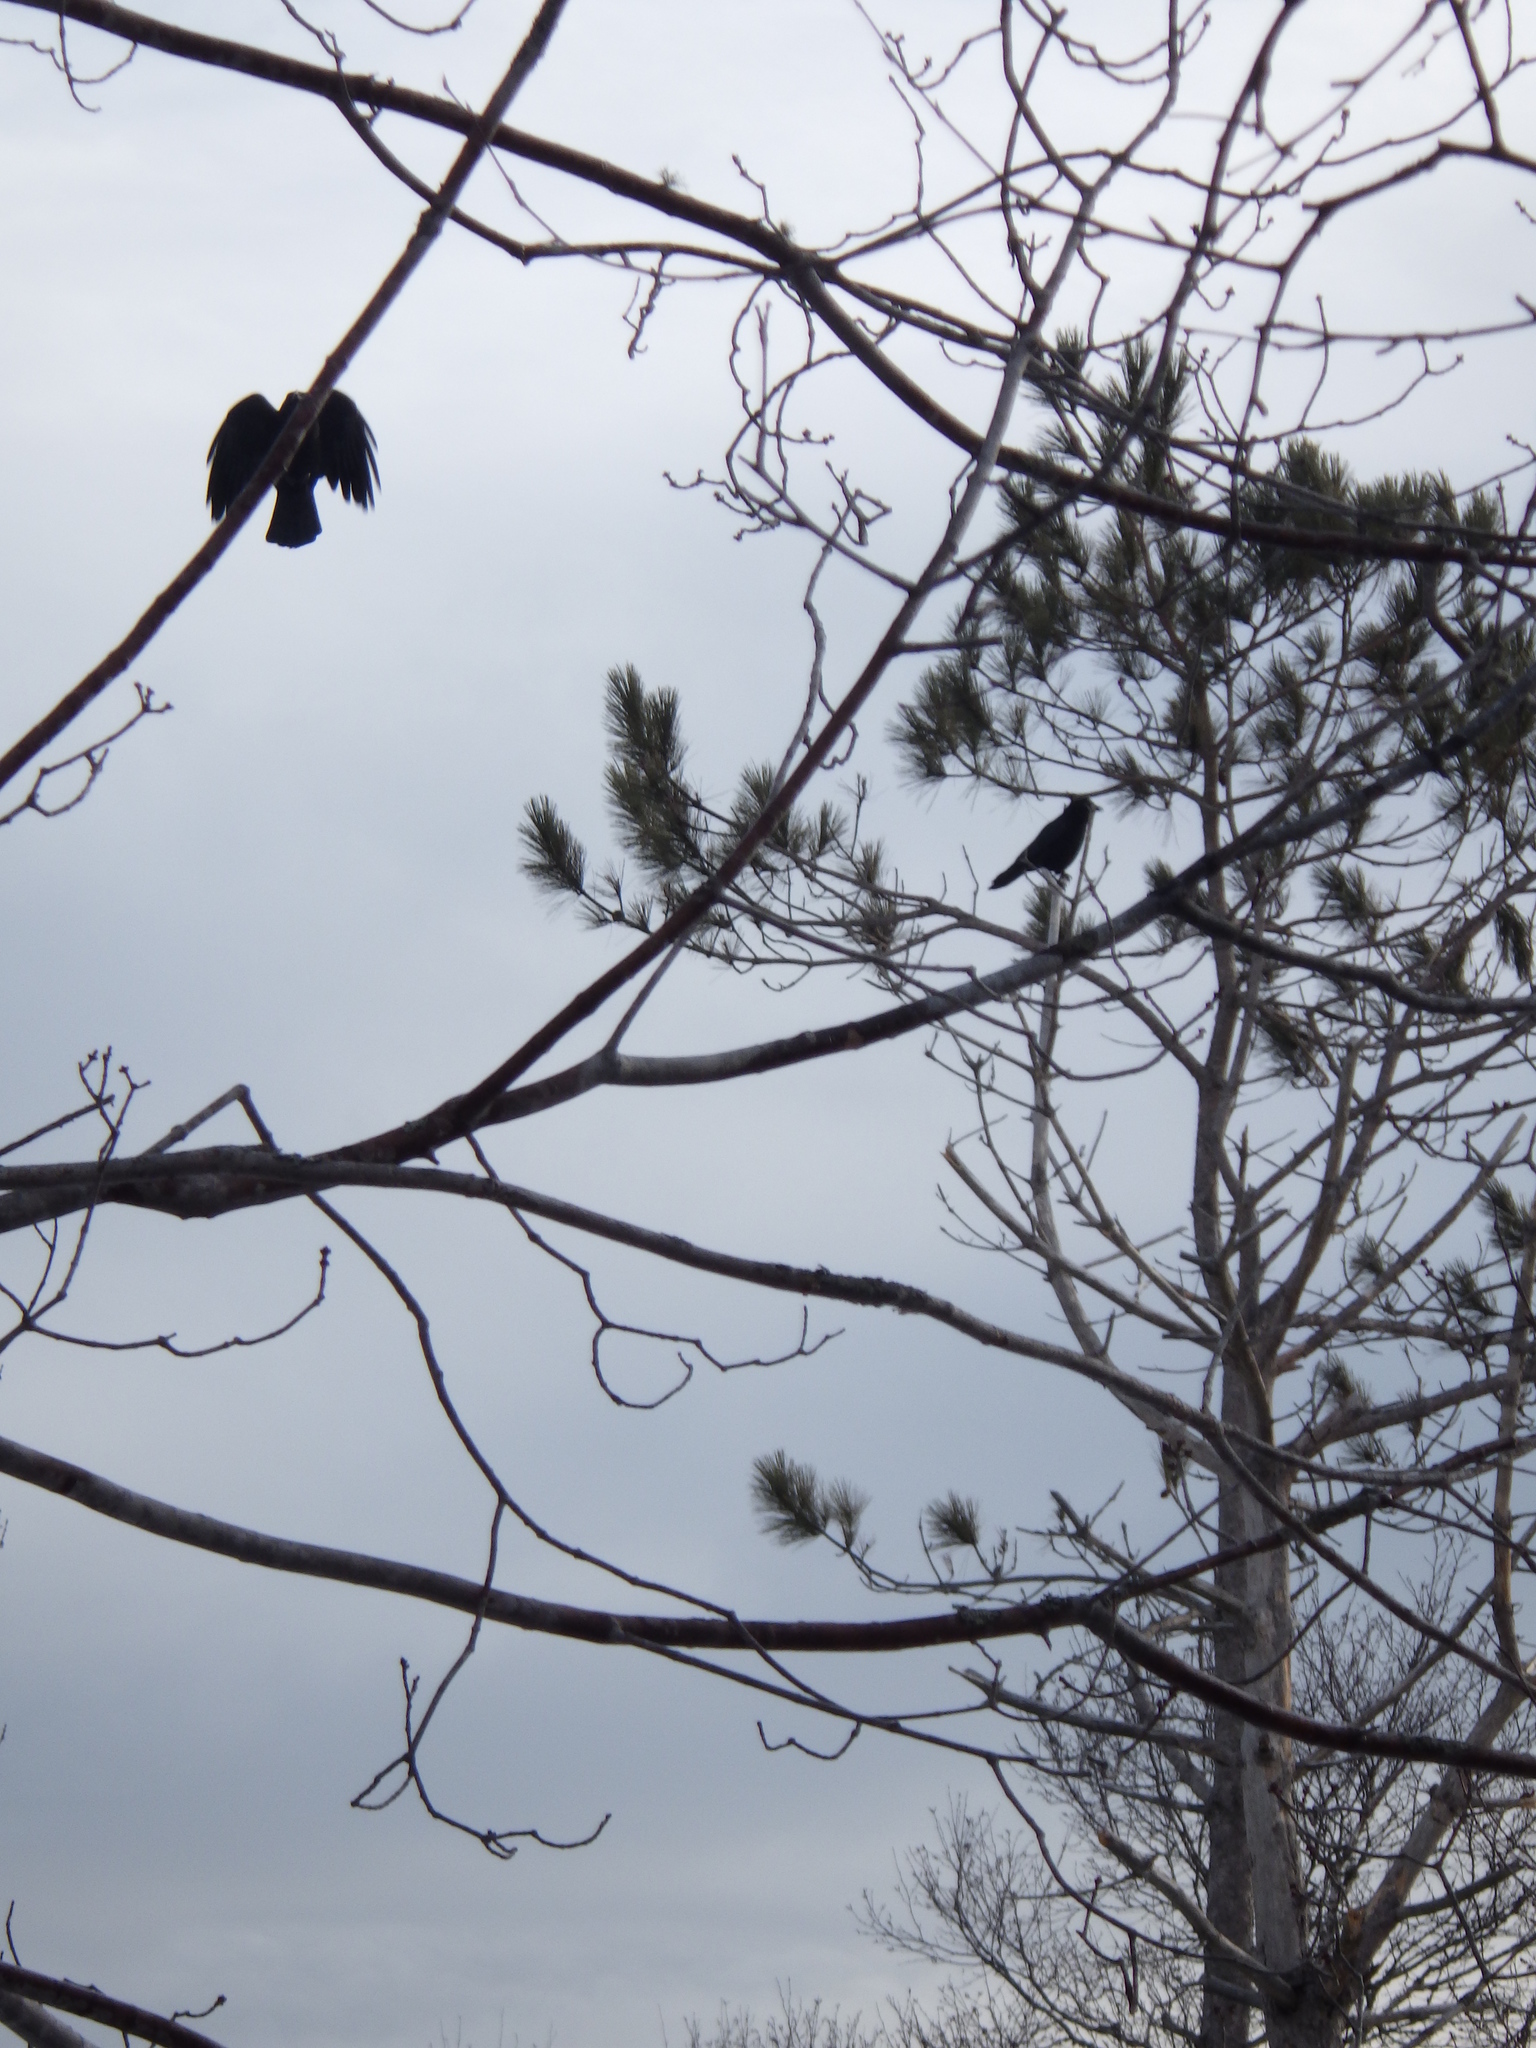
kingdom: Animalia
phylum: Chordata
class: Aves
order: Passeriformes
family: Corvidae
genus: Corvus
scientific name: Corvus brachyrhynchos
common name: American crow
